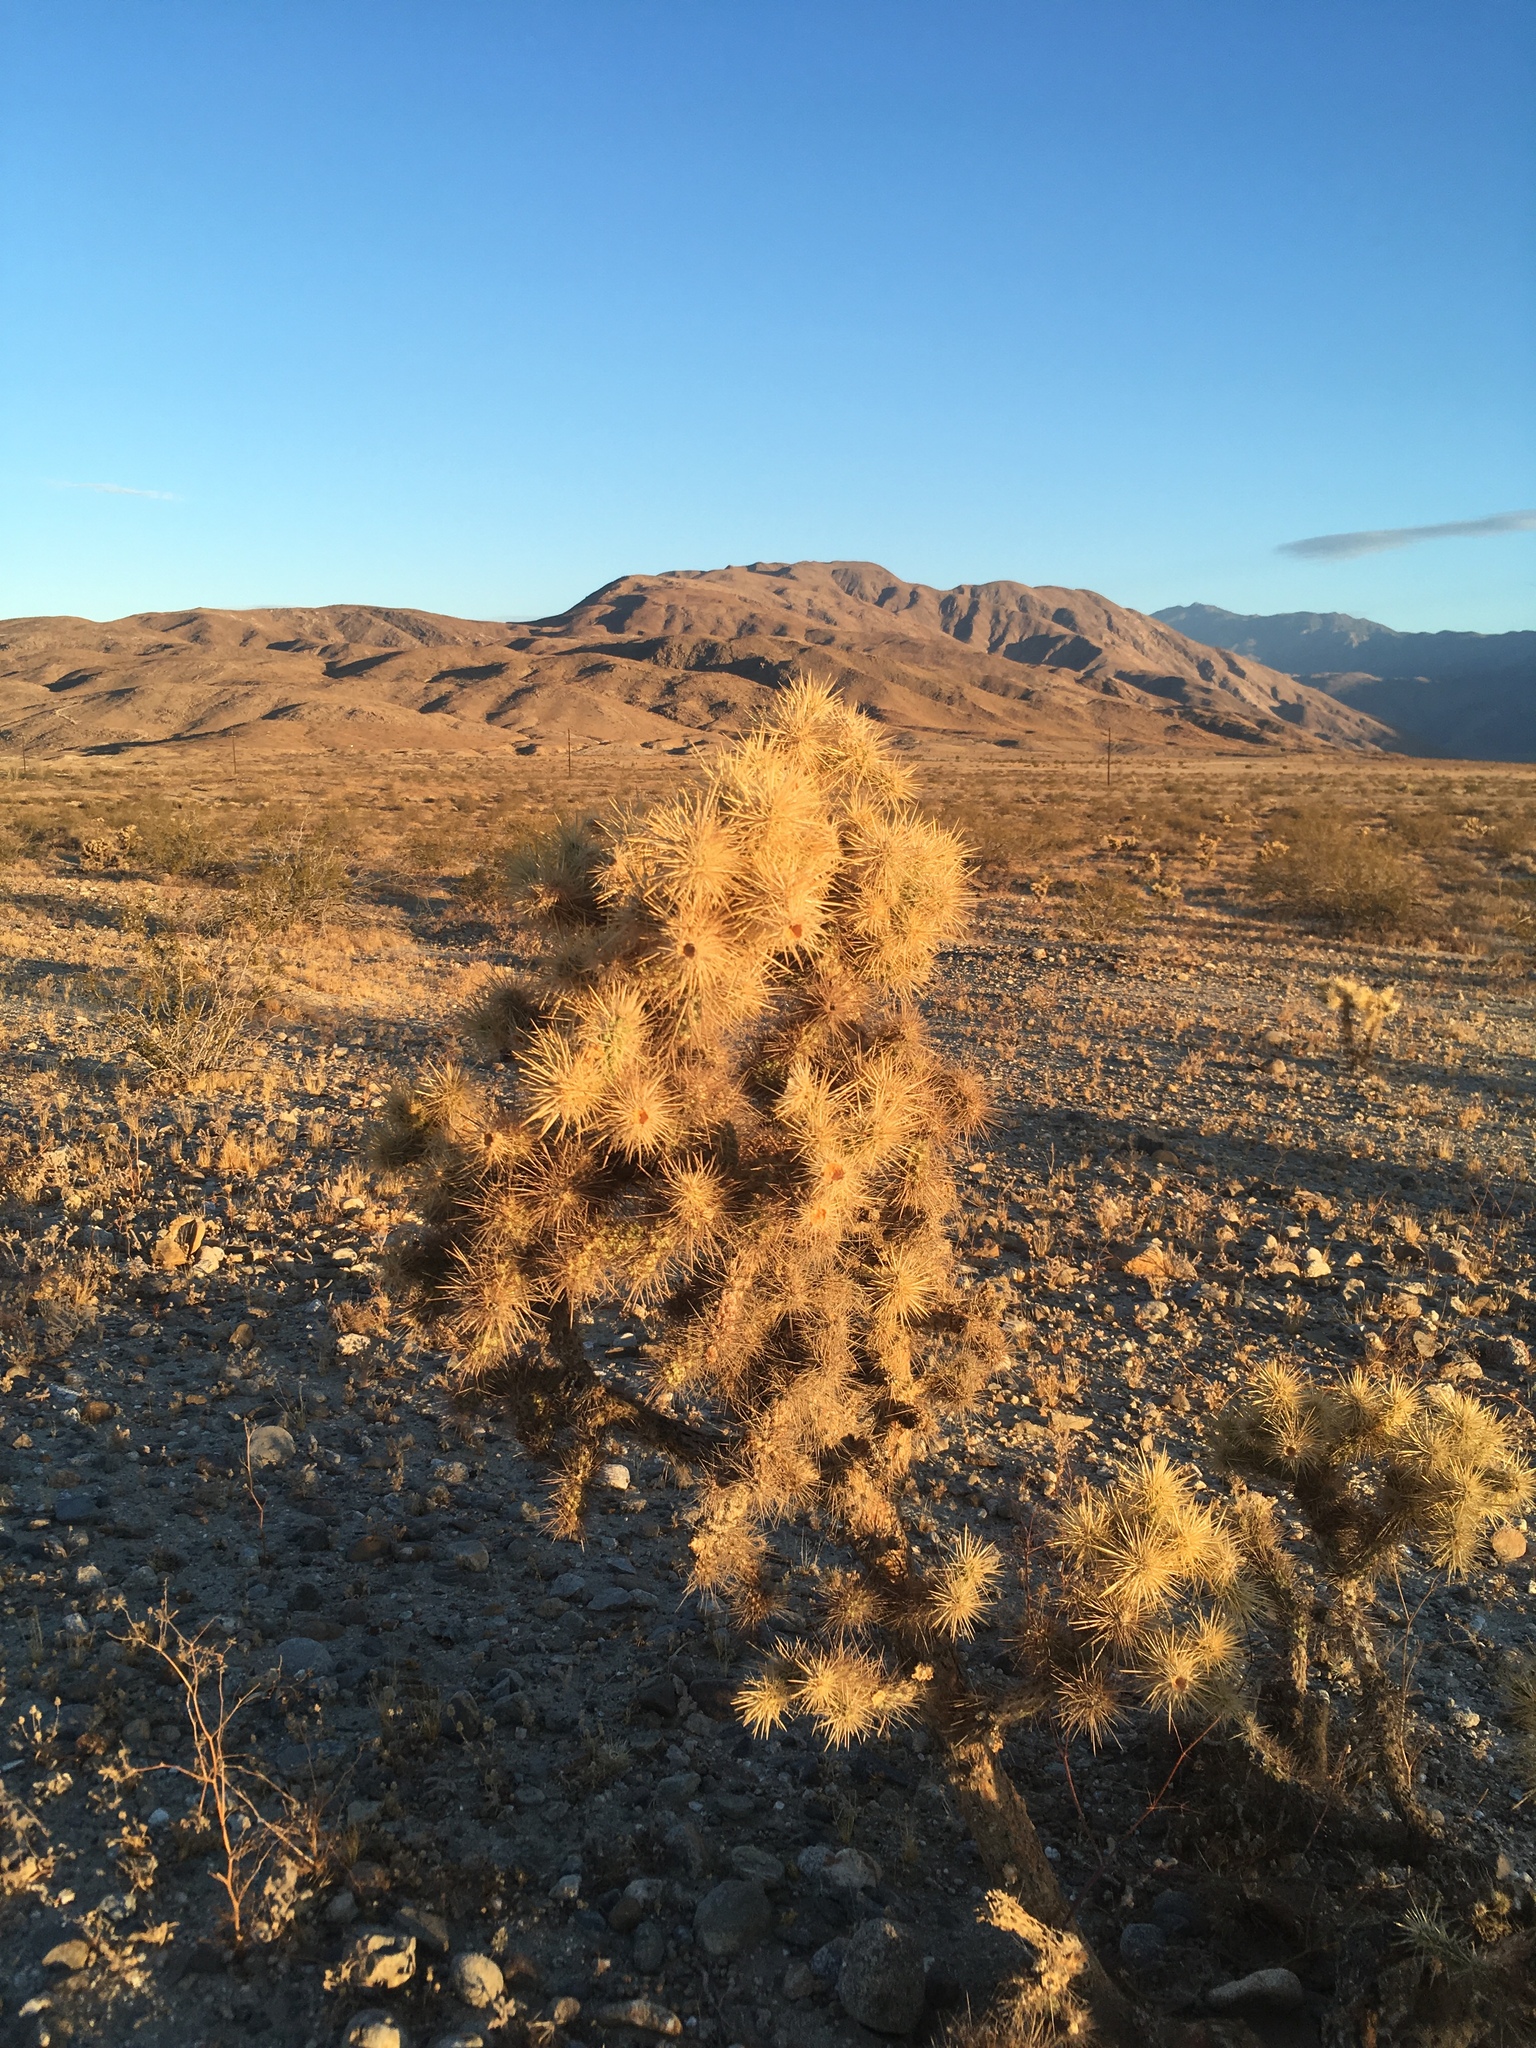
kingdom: Plantae
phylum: Tracheophyta
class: Magnoliopsida
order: Caryophyllales
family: Cactaceae
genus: Cylindropuntia
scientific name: Cylindropuntia echinocarpa
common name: Ground cholla
